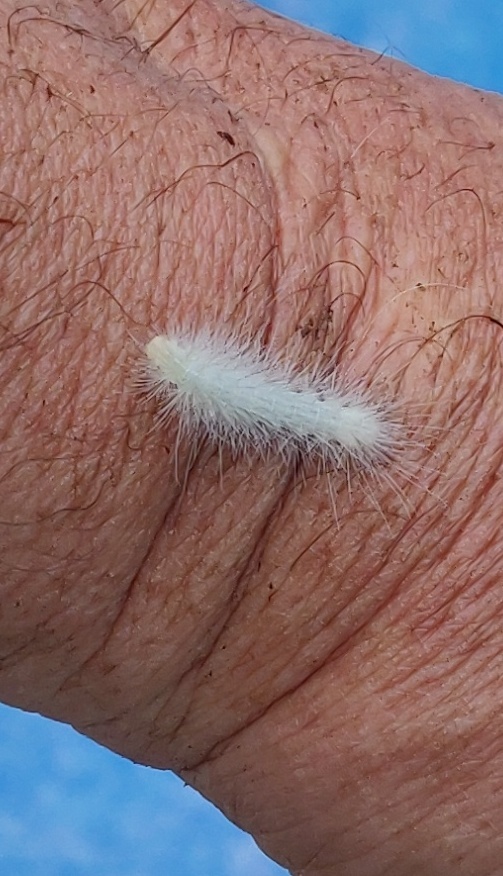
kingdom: Animalia
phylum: Arthropoda
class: Insecta
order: Lepidoptera
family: Erebidae
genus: Spilosoma
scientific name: Spilosoma virginica
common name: Virginia tiger moth
